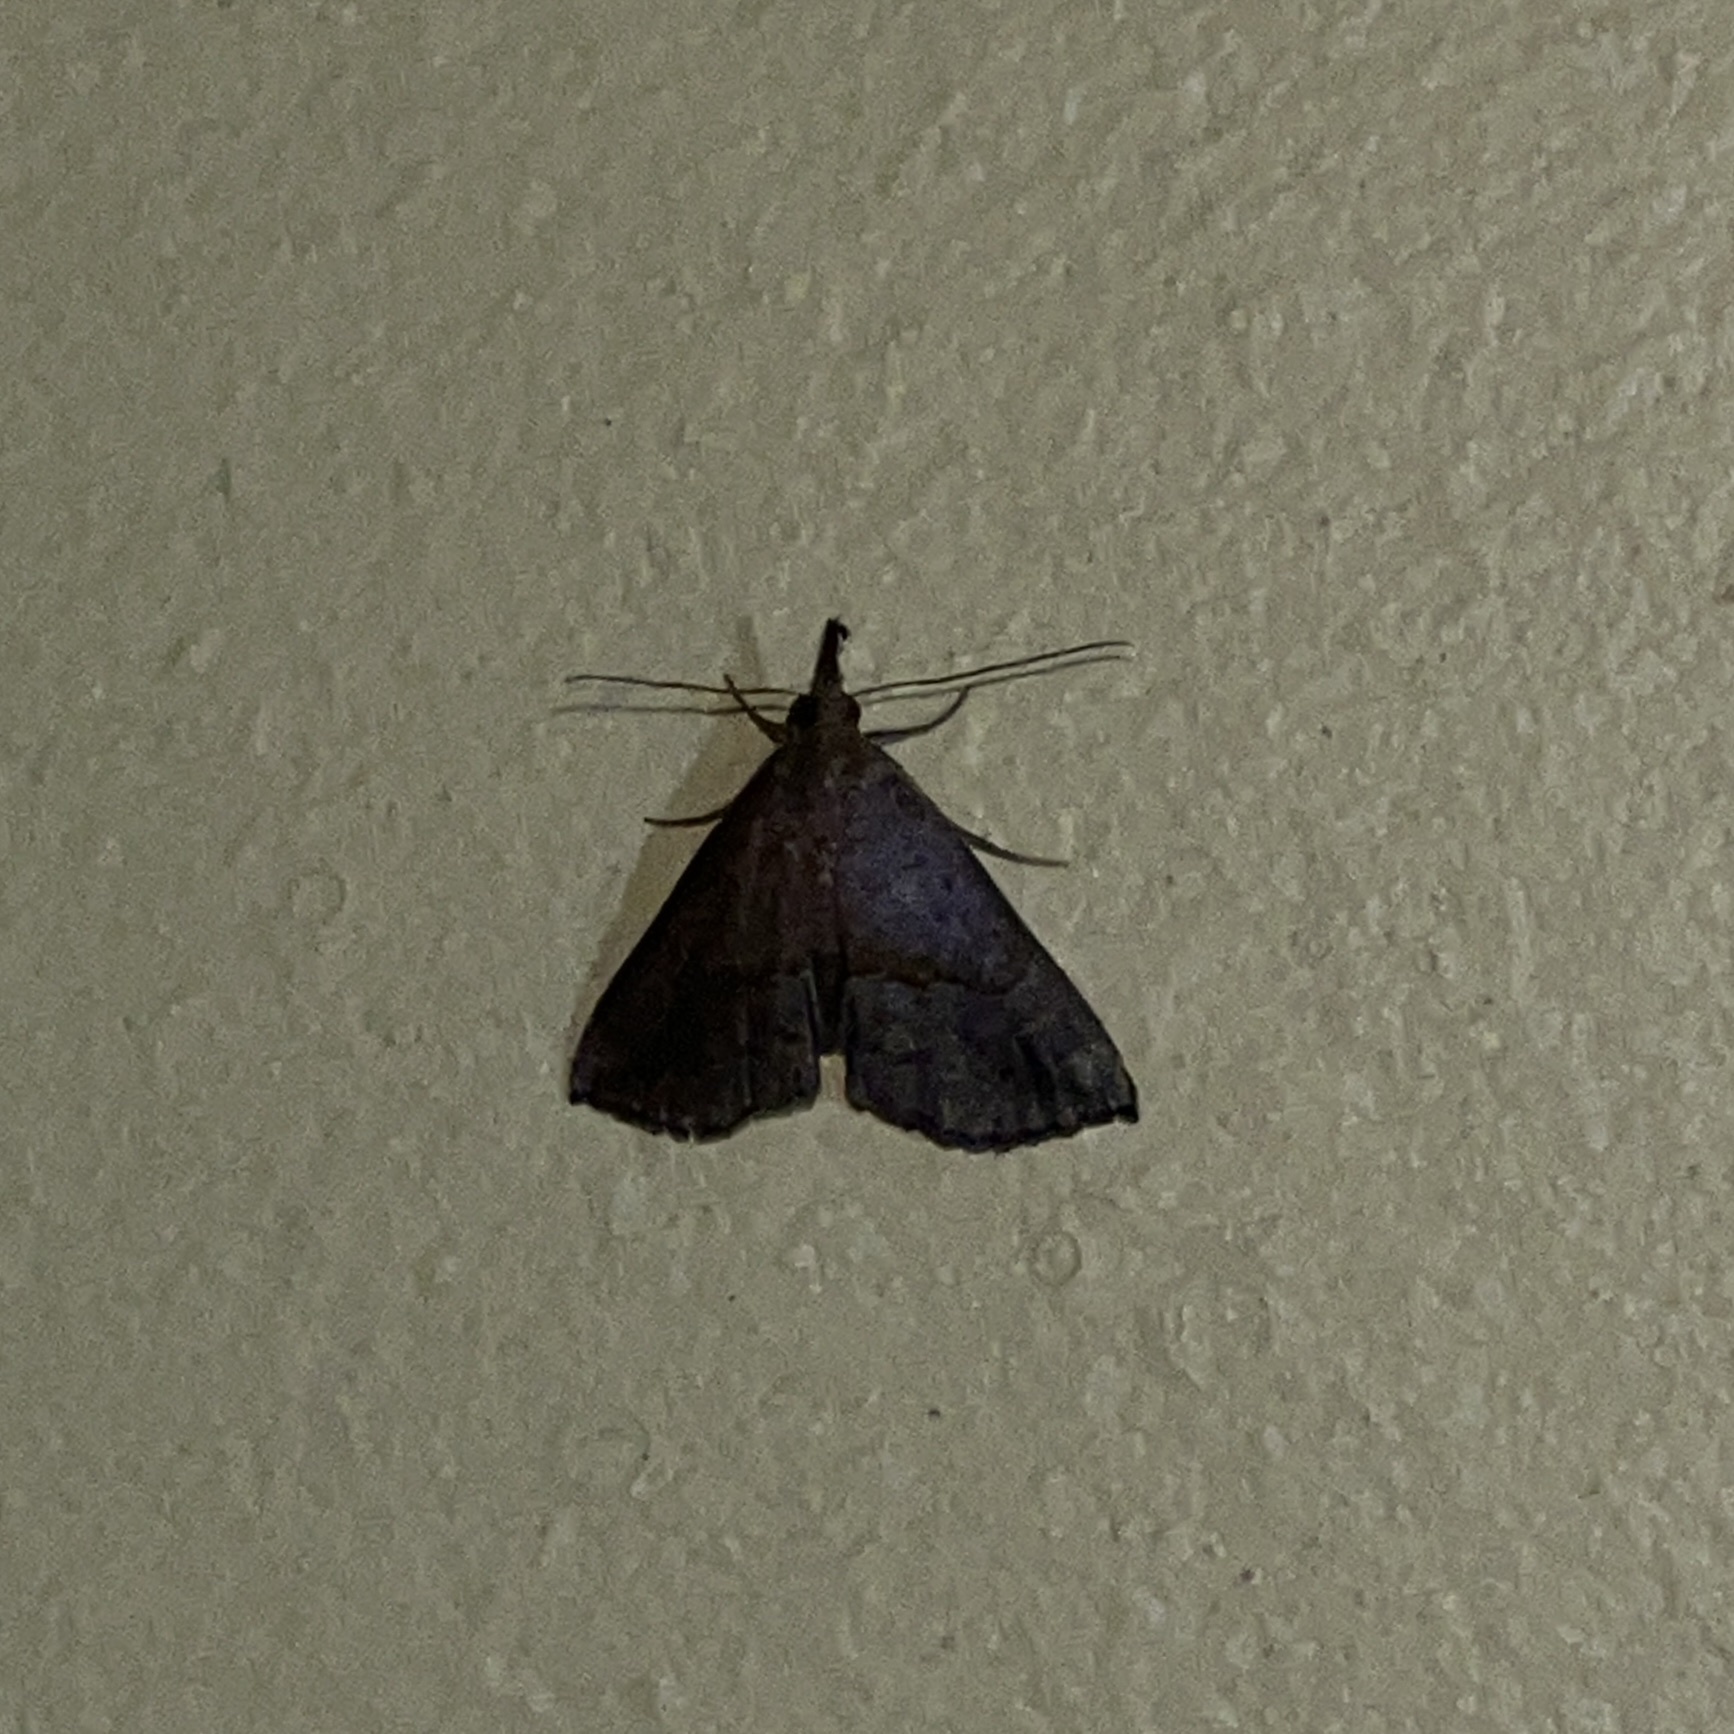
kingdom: Animalia
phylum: Arthropoda
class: Insecta
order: Lepidoptera
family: Erebidae
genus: Hypena
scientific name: Hypena porrectalis
